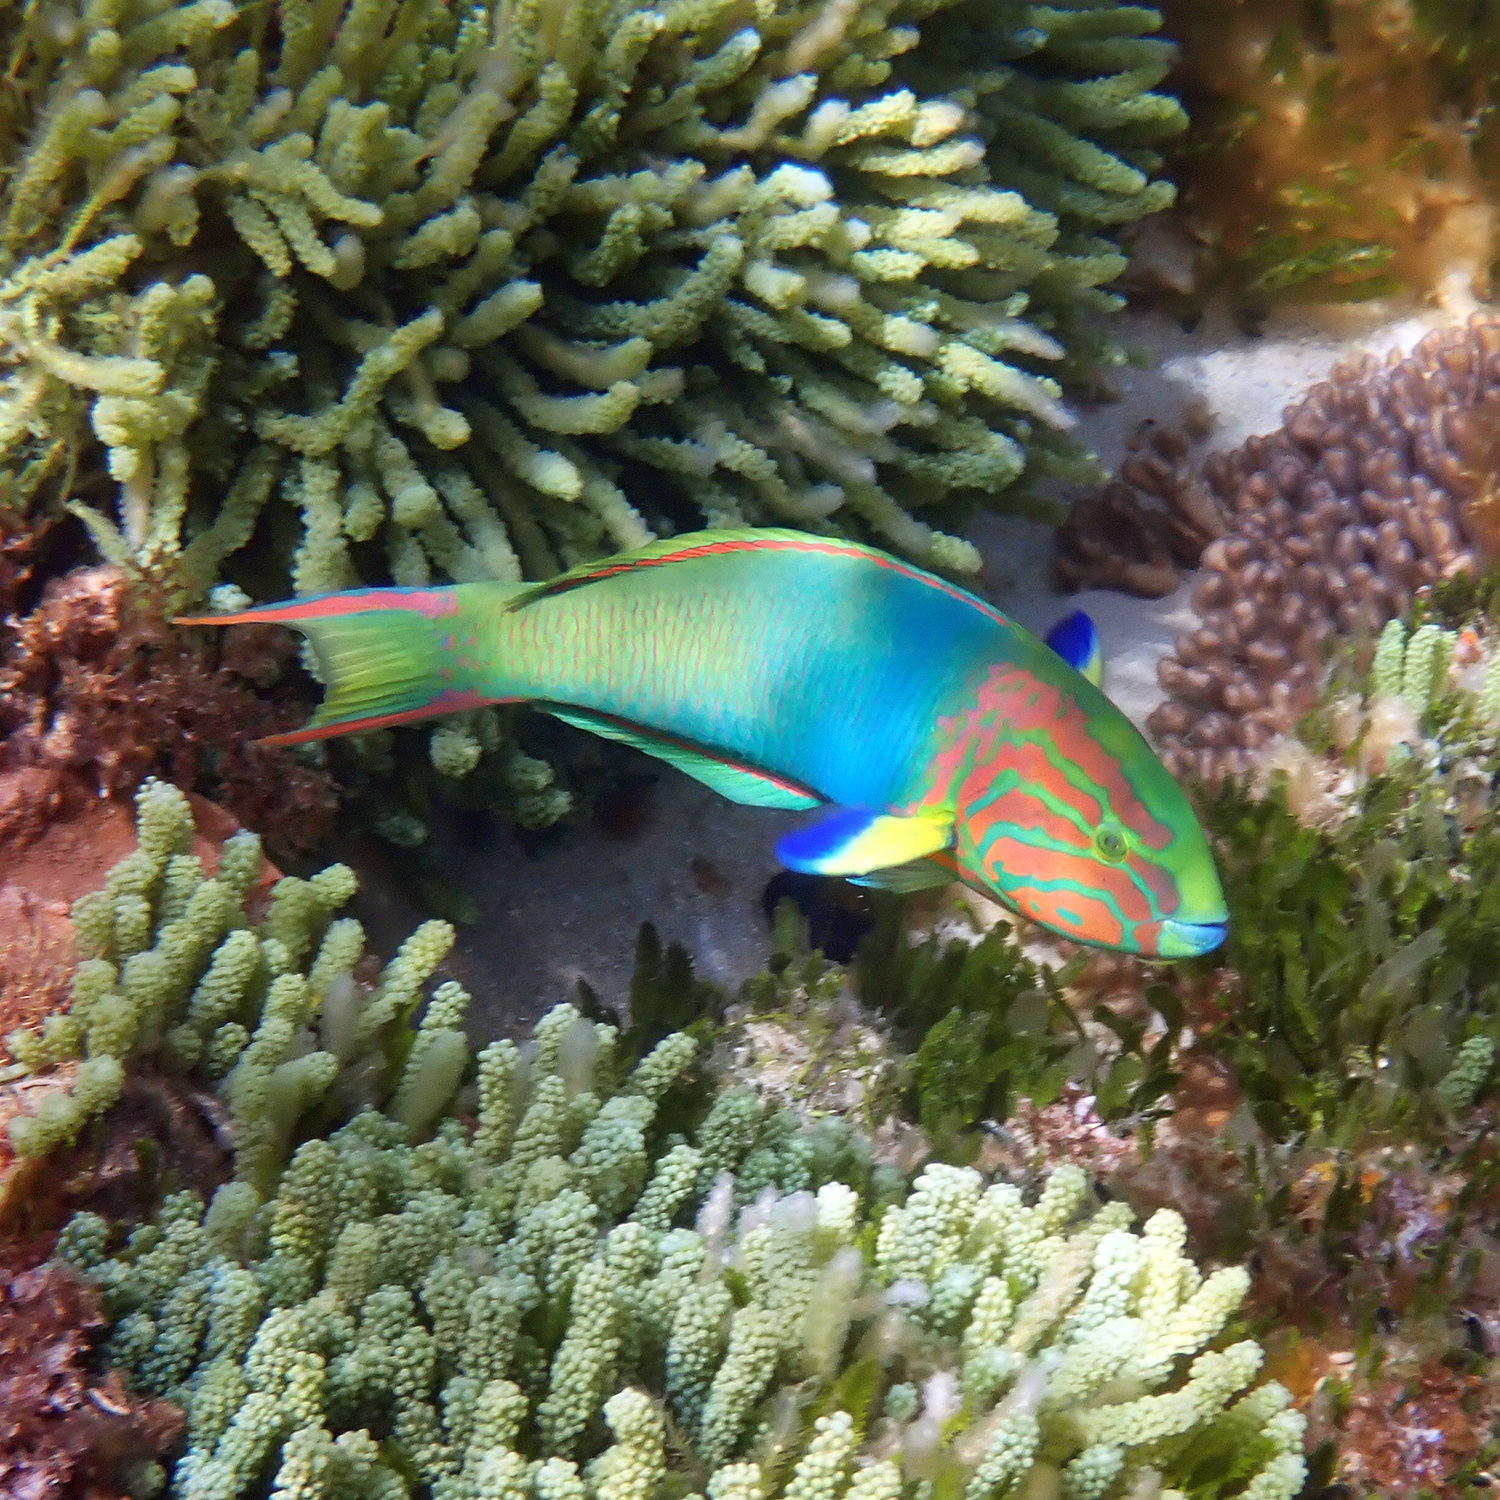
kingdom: Animalia
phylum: Chordata
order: Perciformes
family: Labridae
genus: Thalassoma
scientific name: Thalassoma lutescens
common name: Green moon wrasse
